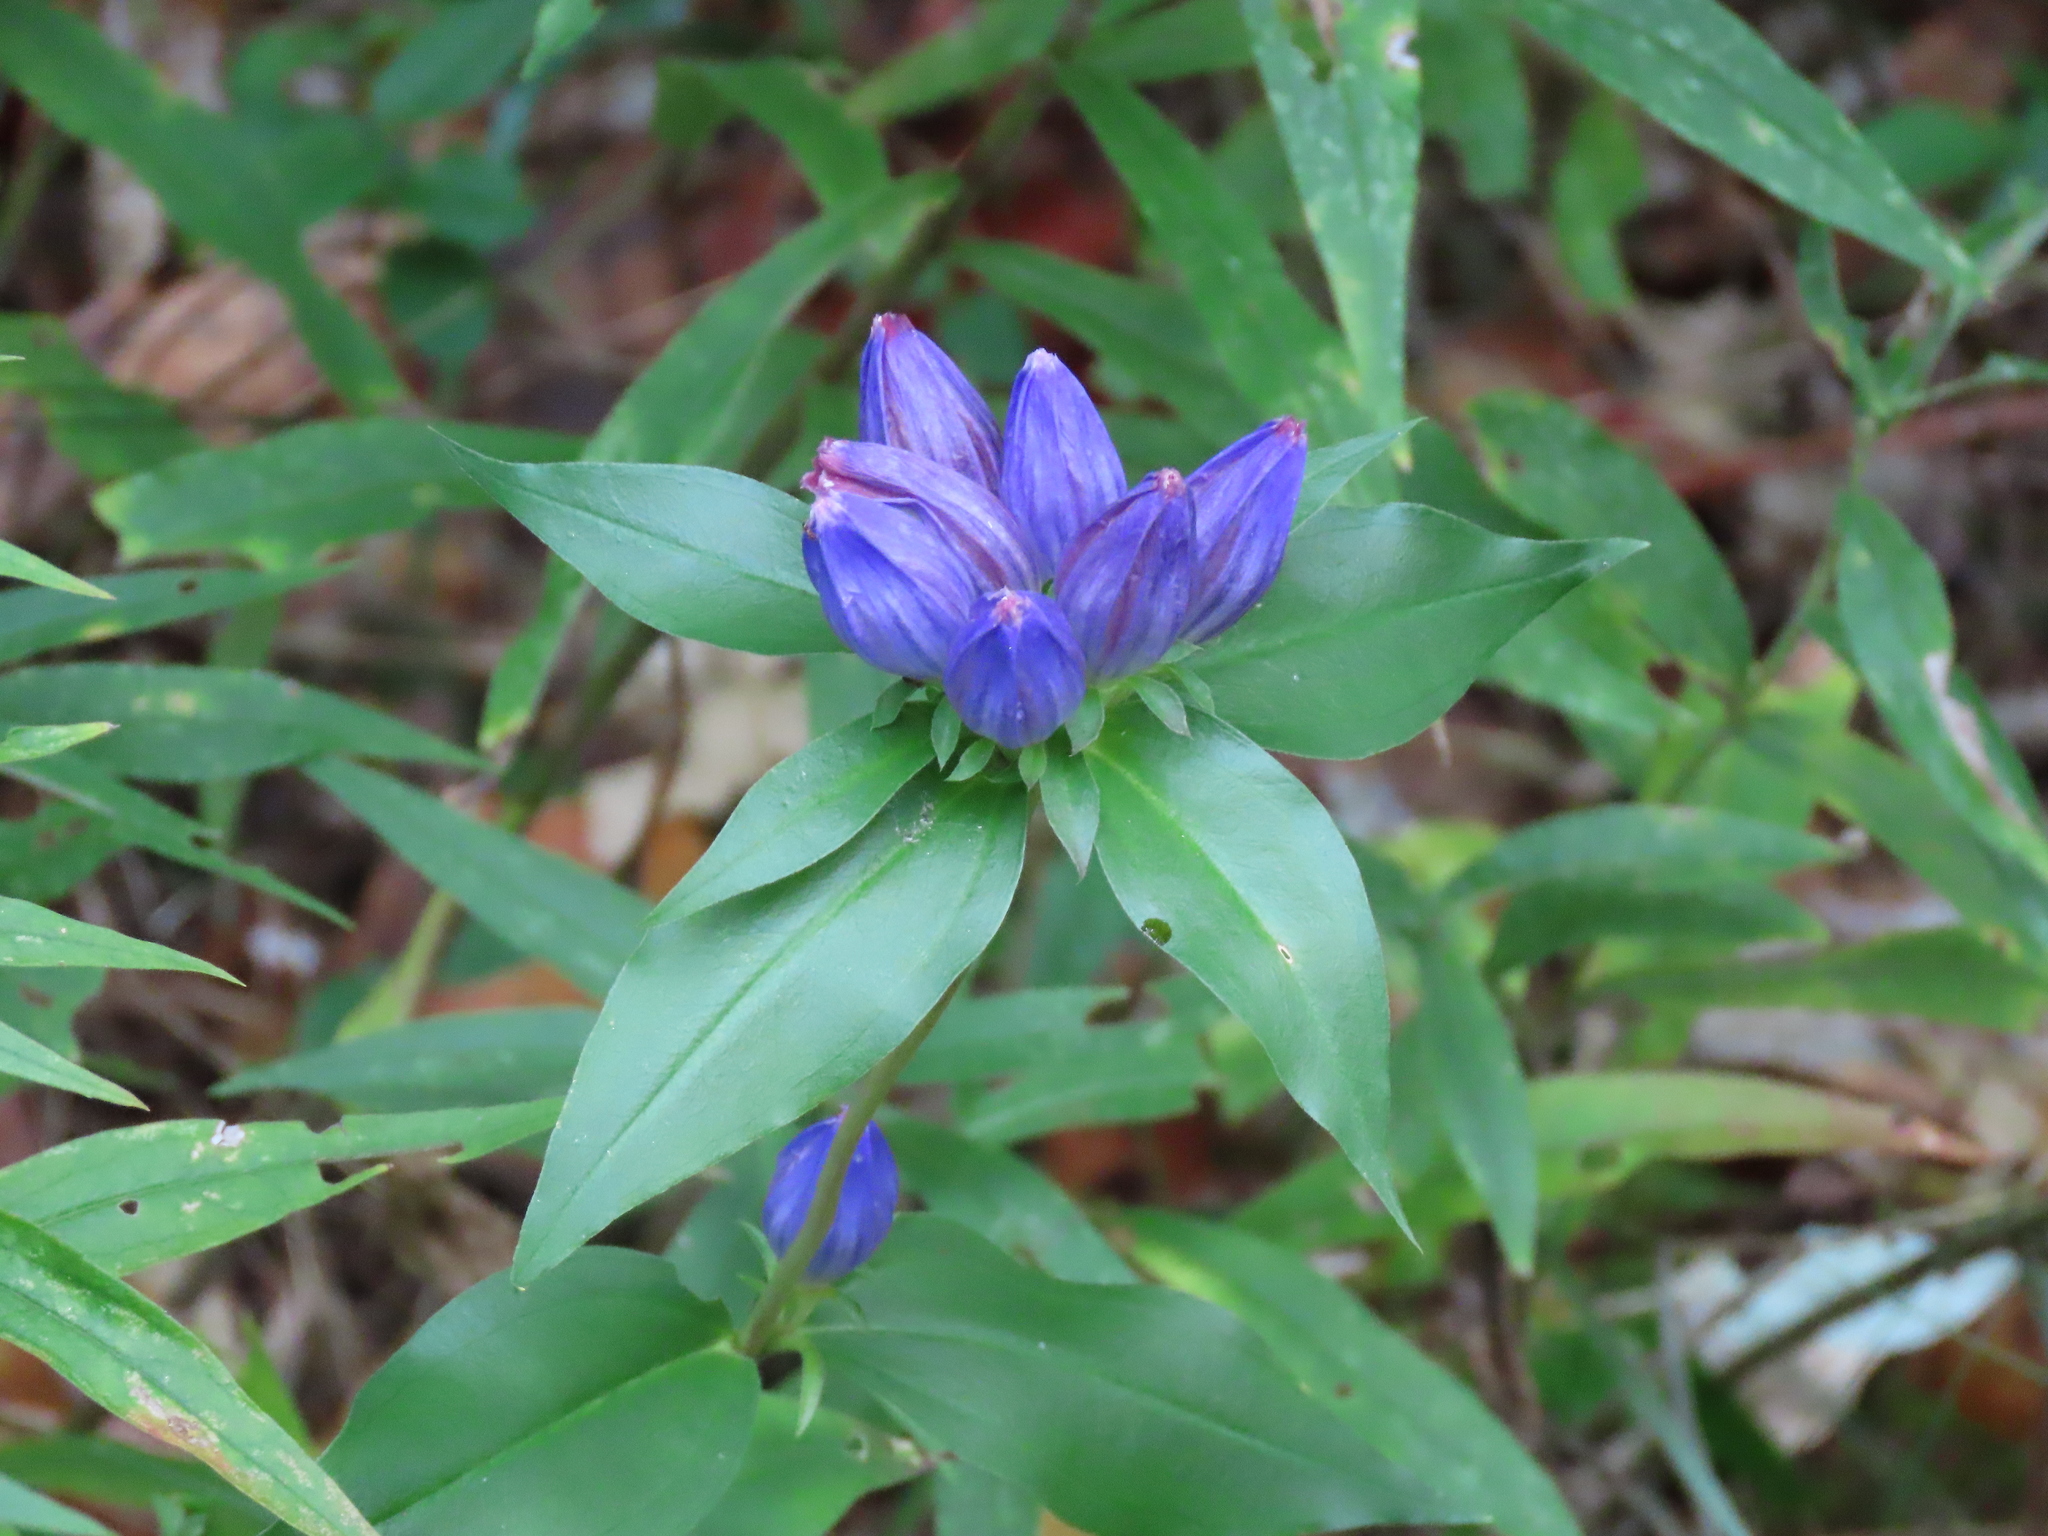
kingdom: Plantae
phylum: Tracheophyta
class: Magnoliopsida
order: Gentianales
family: Gentianaceae
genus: Gentiana
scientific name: Gentiana andrewsii
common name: Bottle gentian
